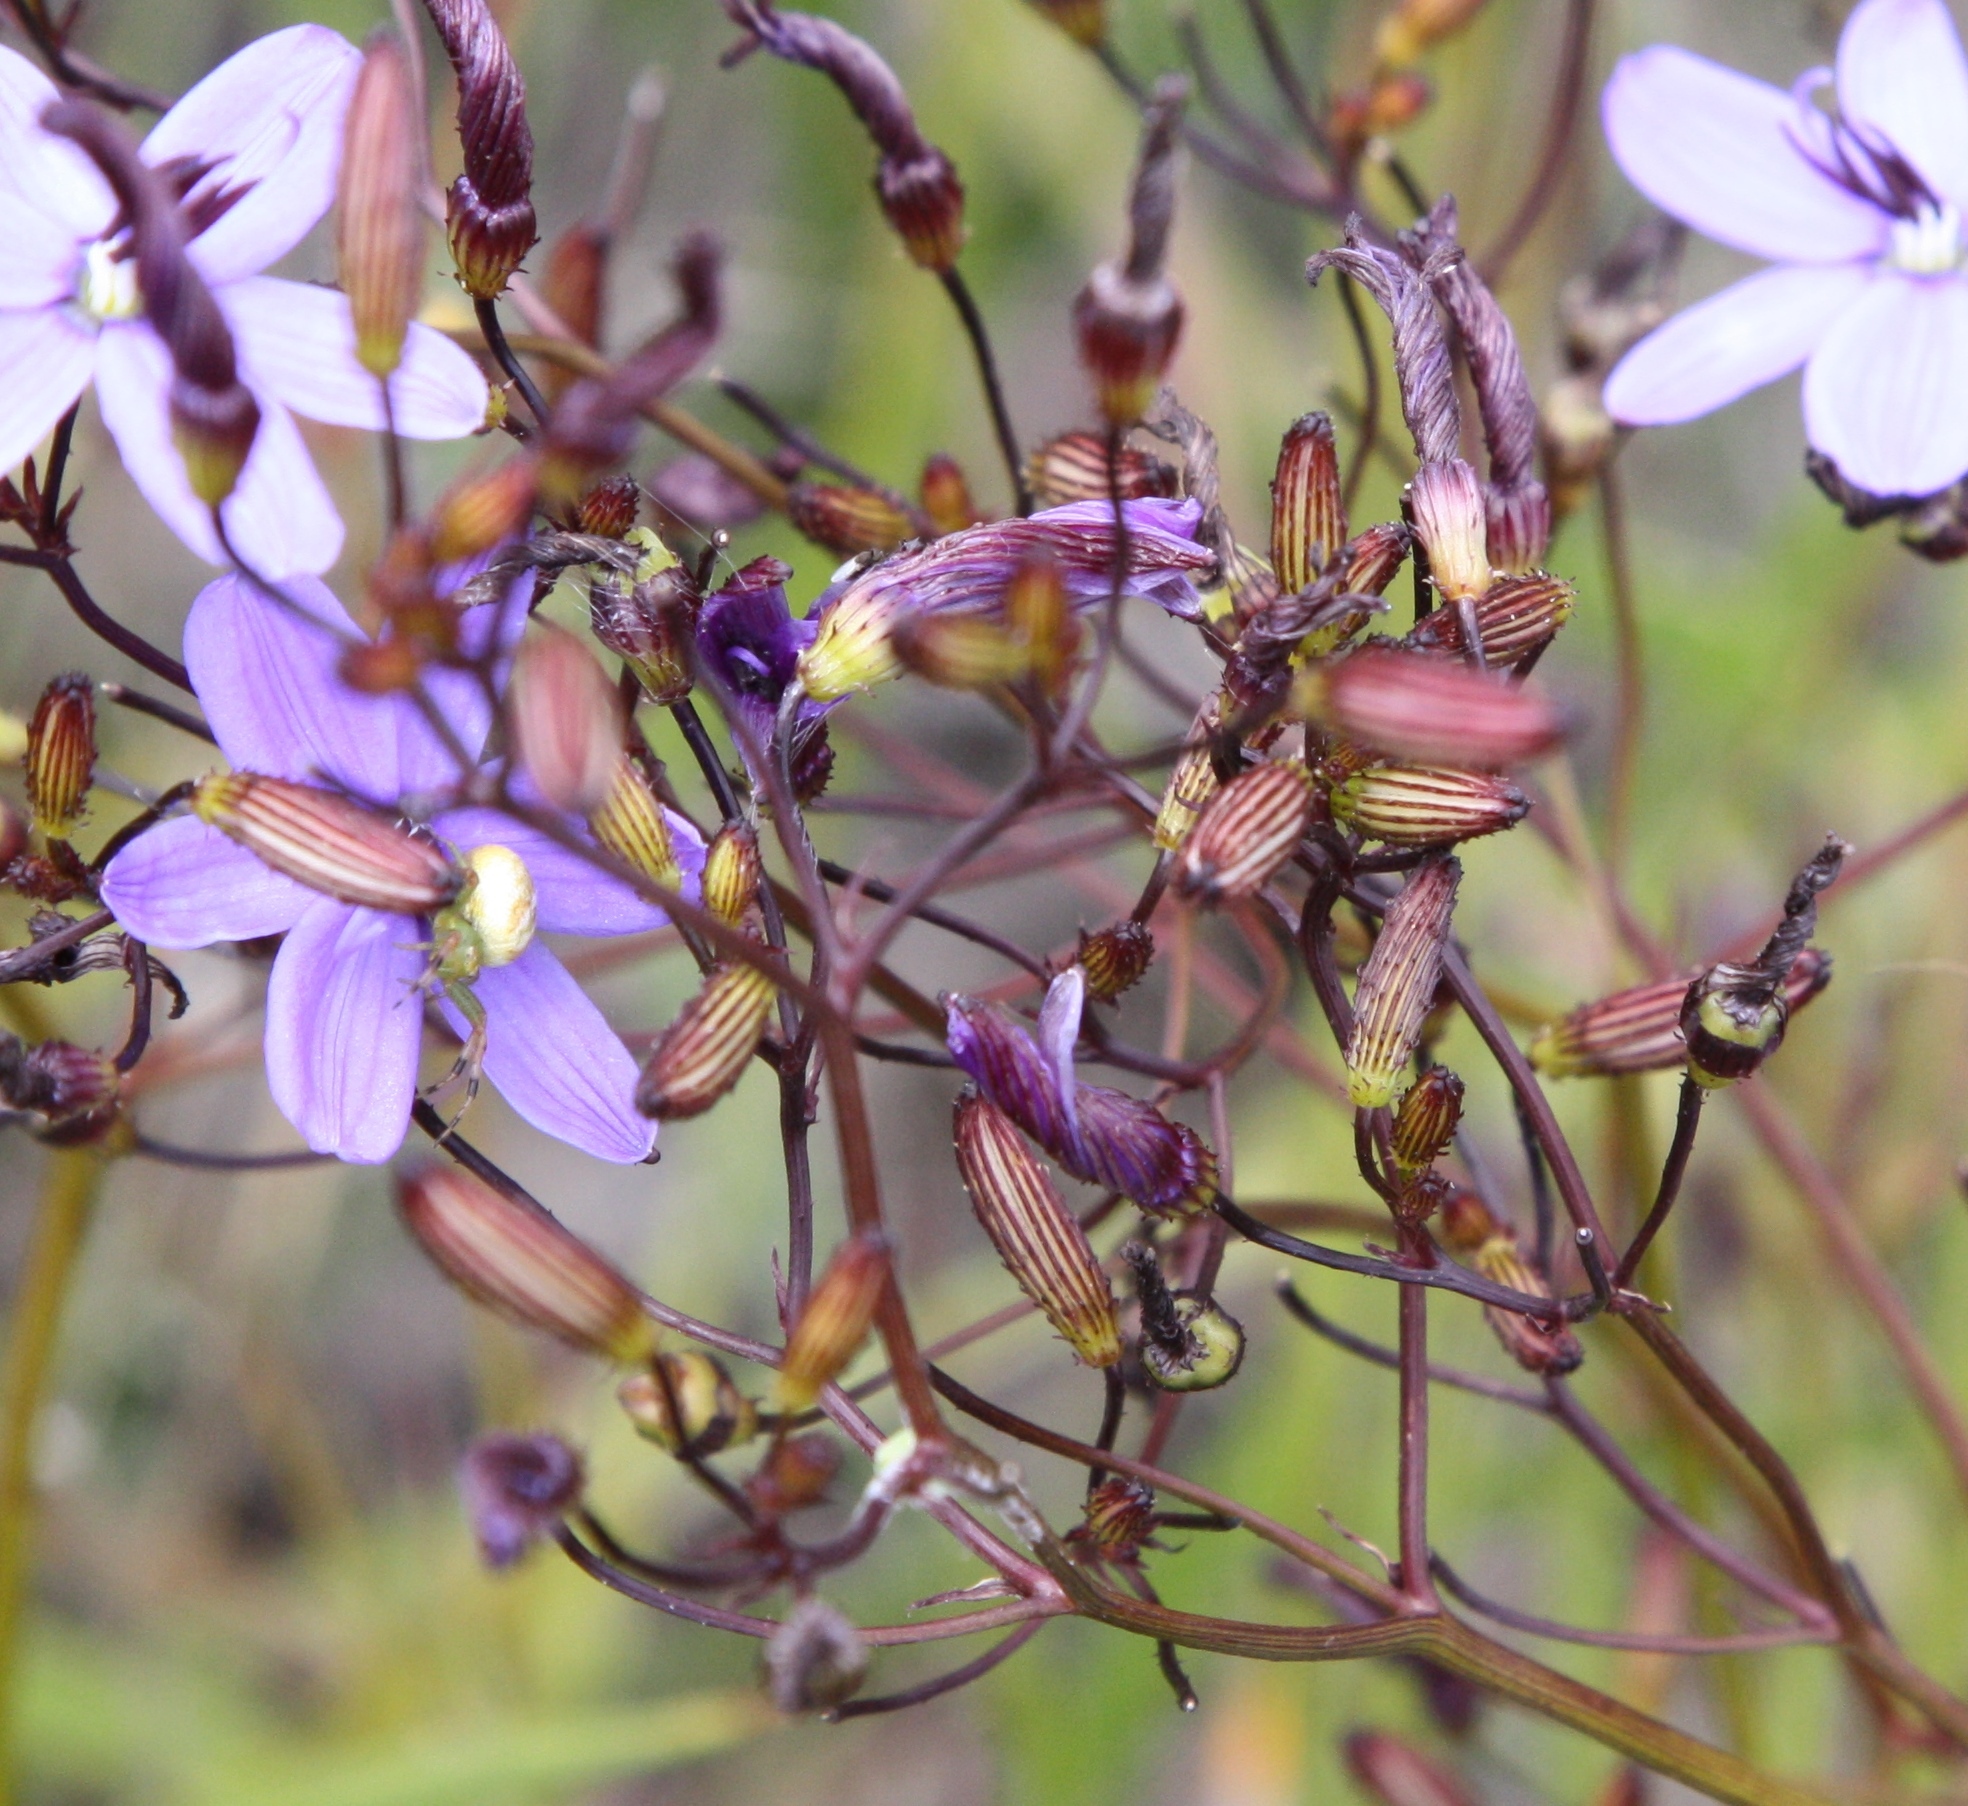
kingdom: Plantae
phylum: Tracheophyta
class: Liliopsida
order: Asparagales
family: Asphodelaceae
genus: Agrostocrinum
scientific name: Agrostocrinum hirsutum
